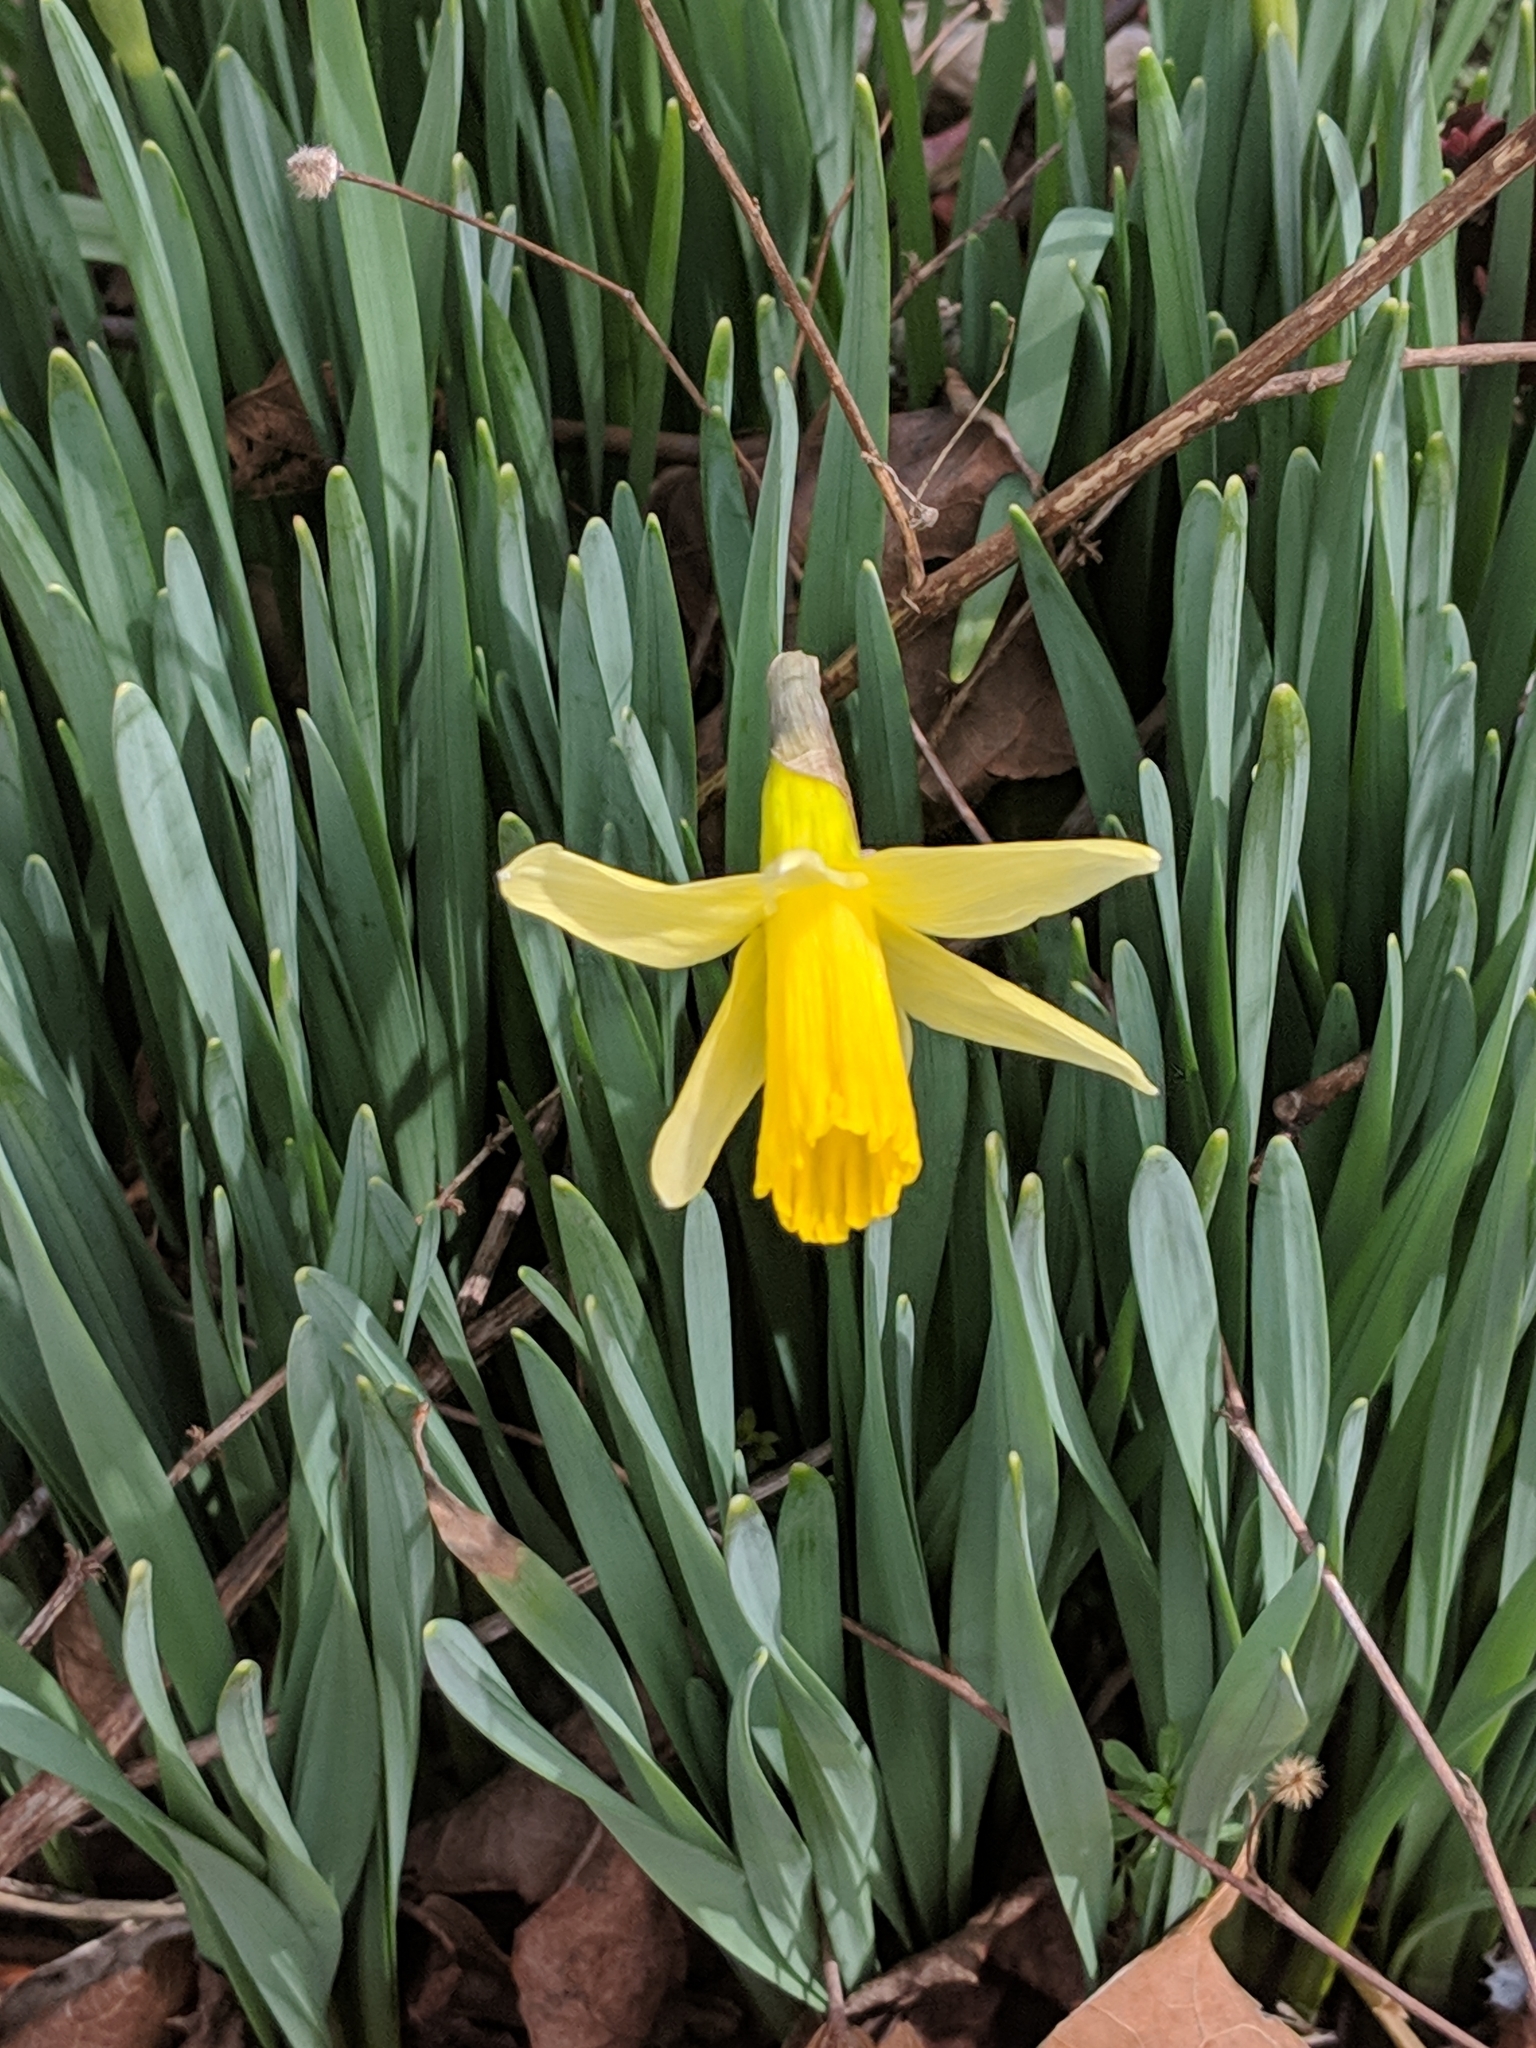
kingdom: Plantae
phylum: Tracheophyta
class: Liliopsida
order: Asparagales
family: Amaryllidaceae
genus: Narcissus
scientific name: Narcissus pseudonarcissus
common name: Daffodil
